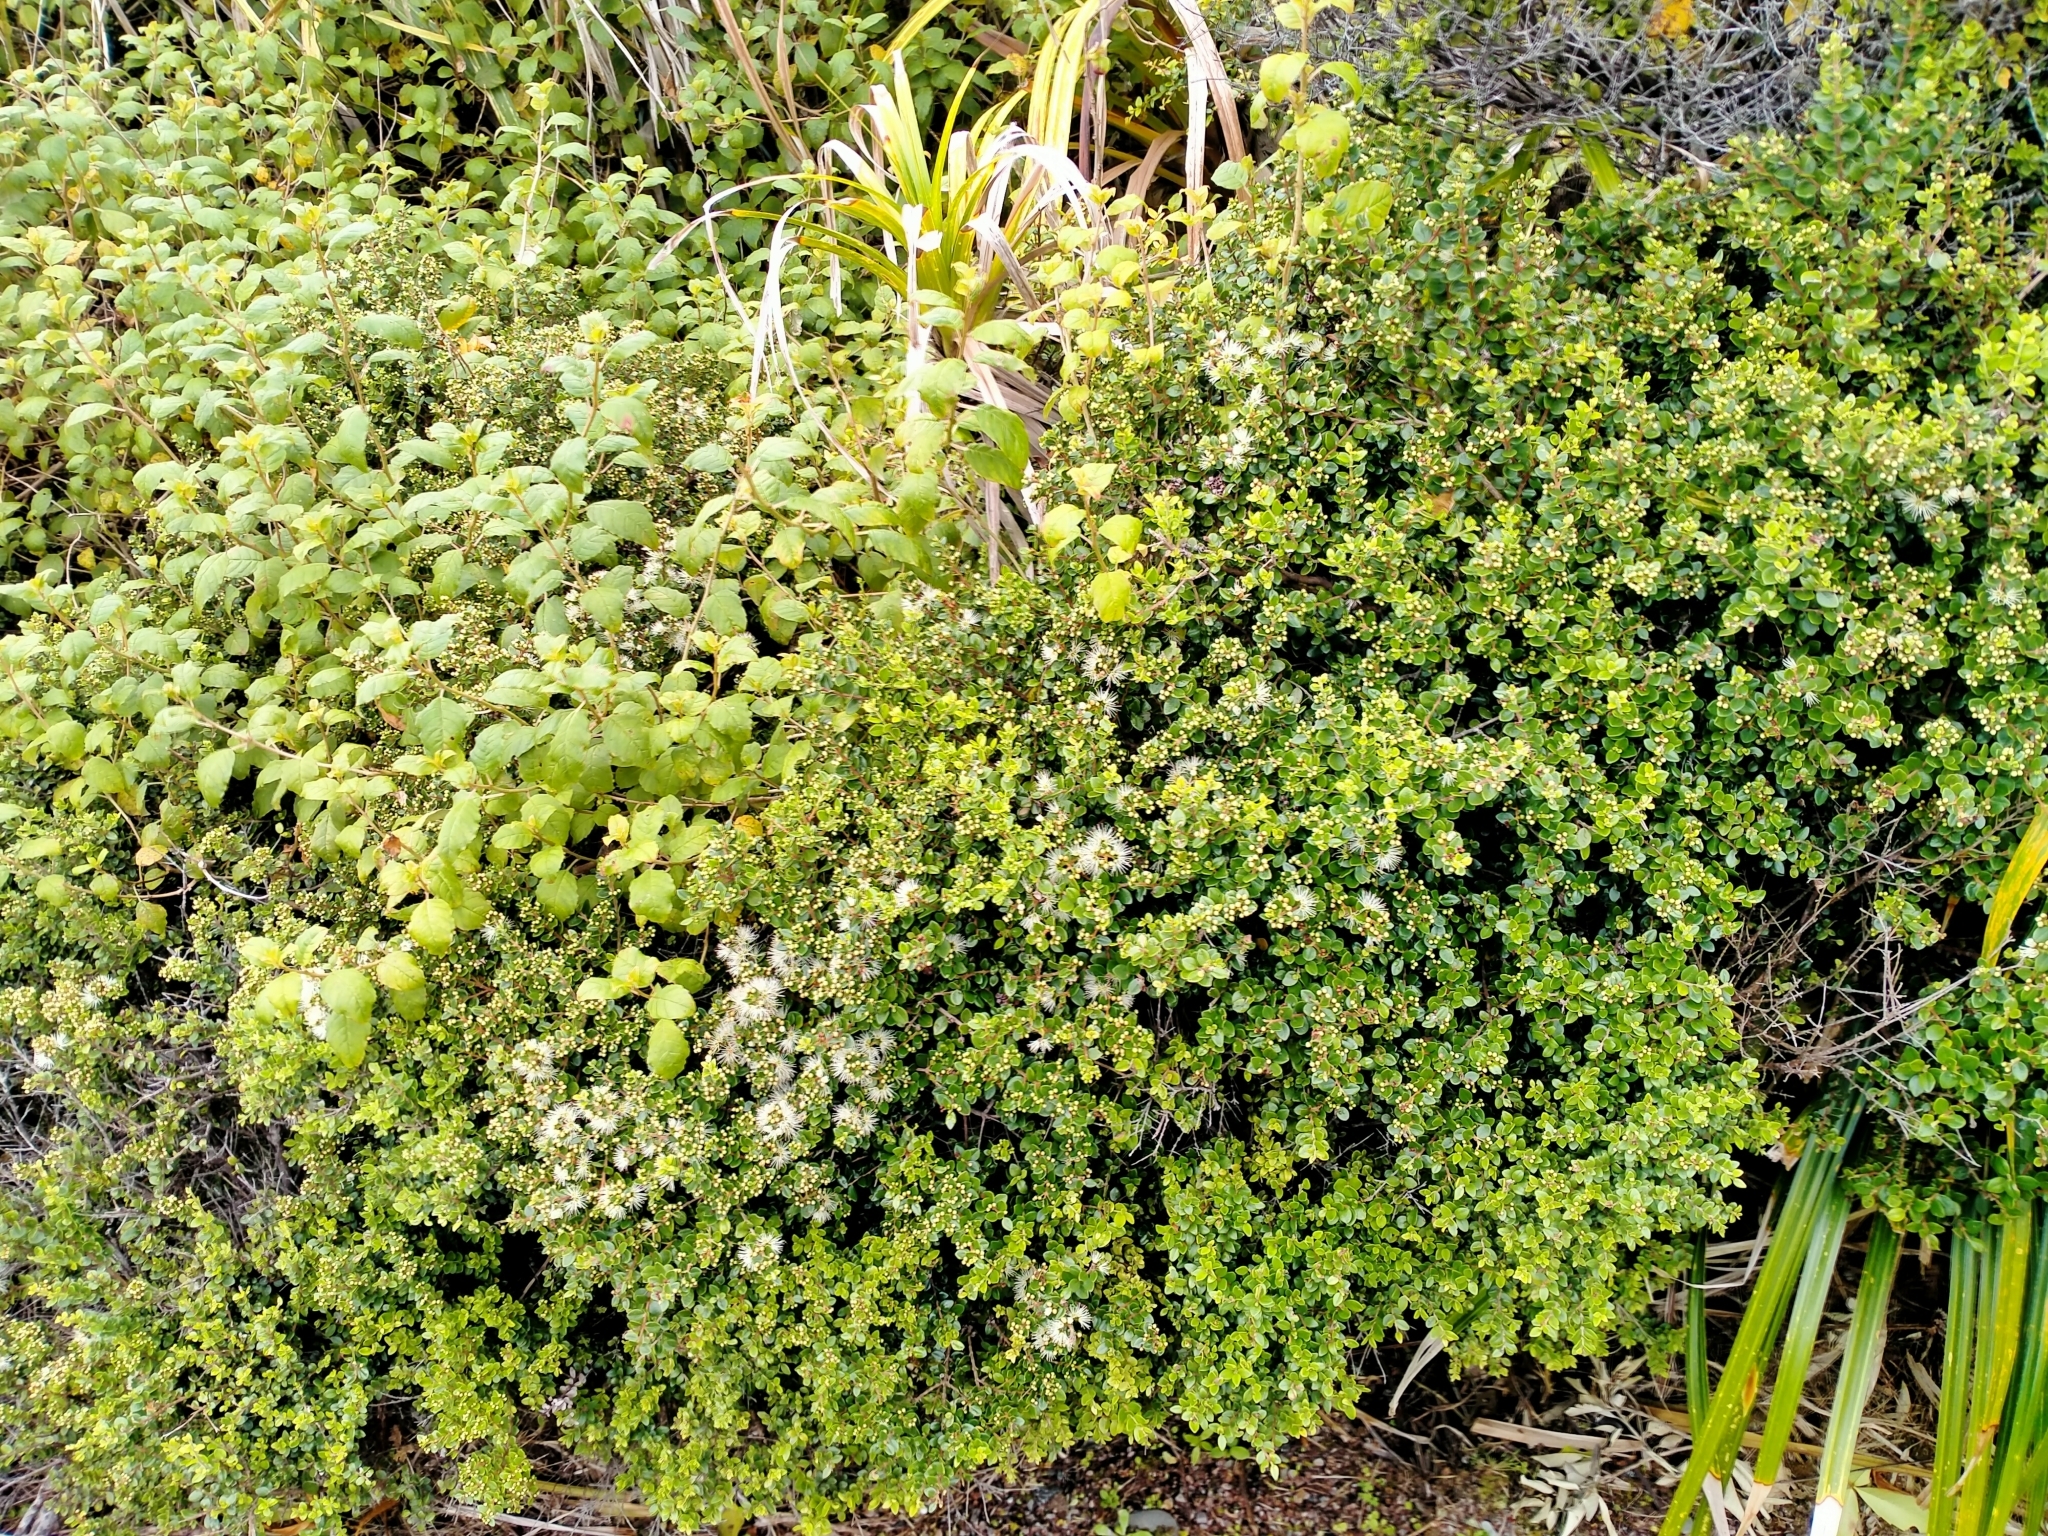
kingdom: Plantae
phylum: Tracheophyta
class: Magnoliopsida
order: Myrtales
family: Myrtaceae
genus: Metrosideros
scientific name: Metrosideros perforata
